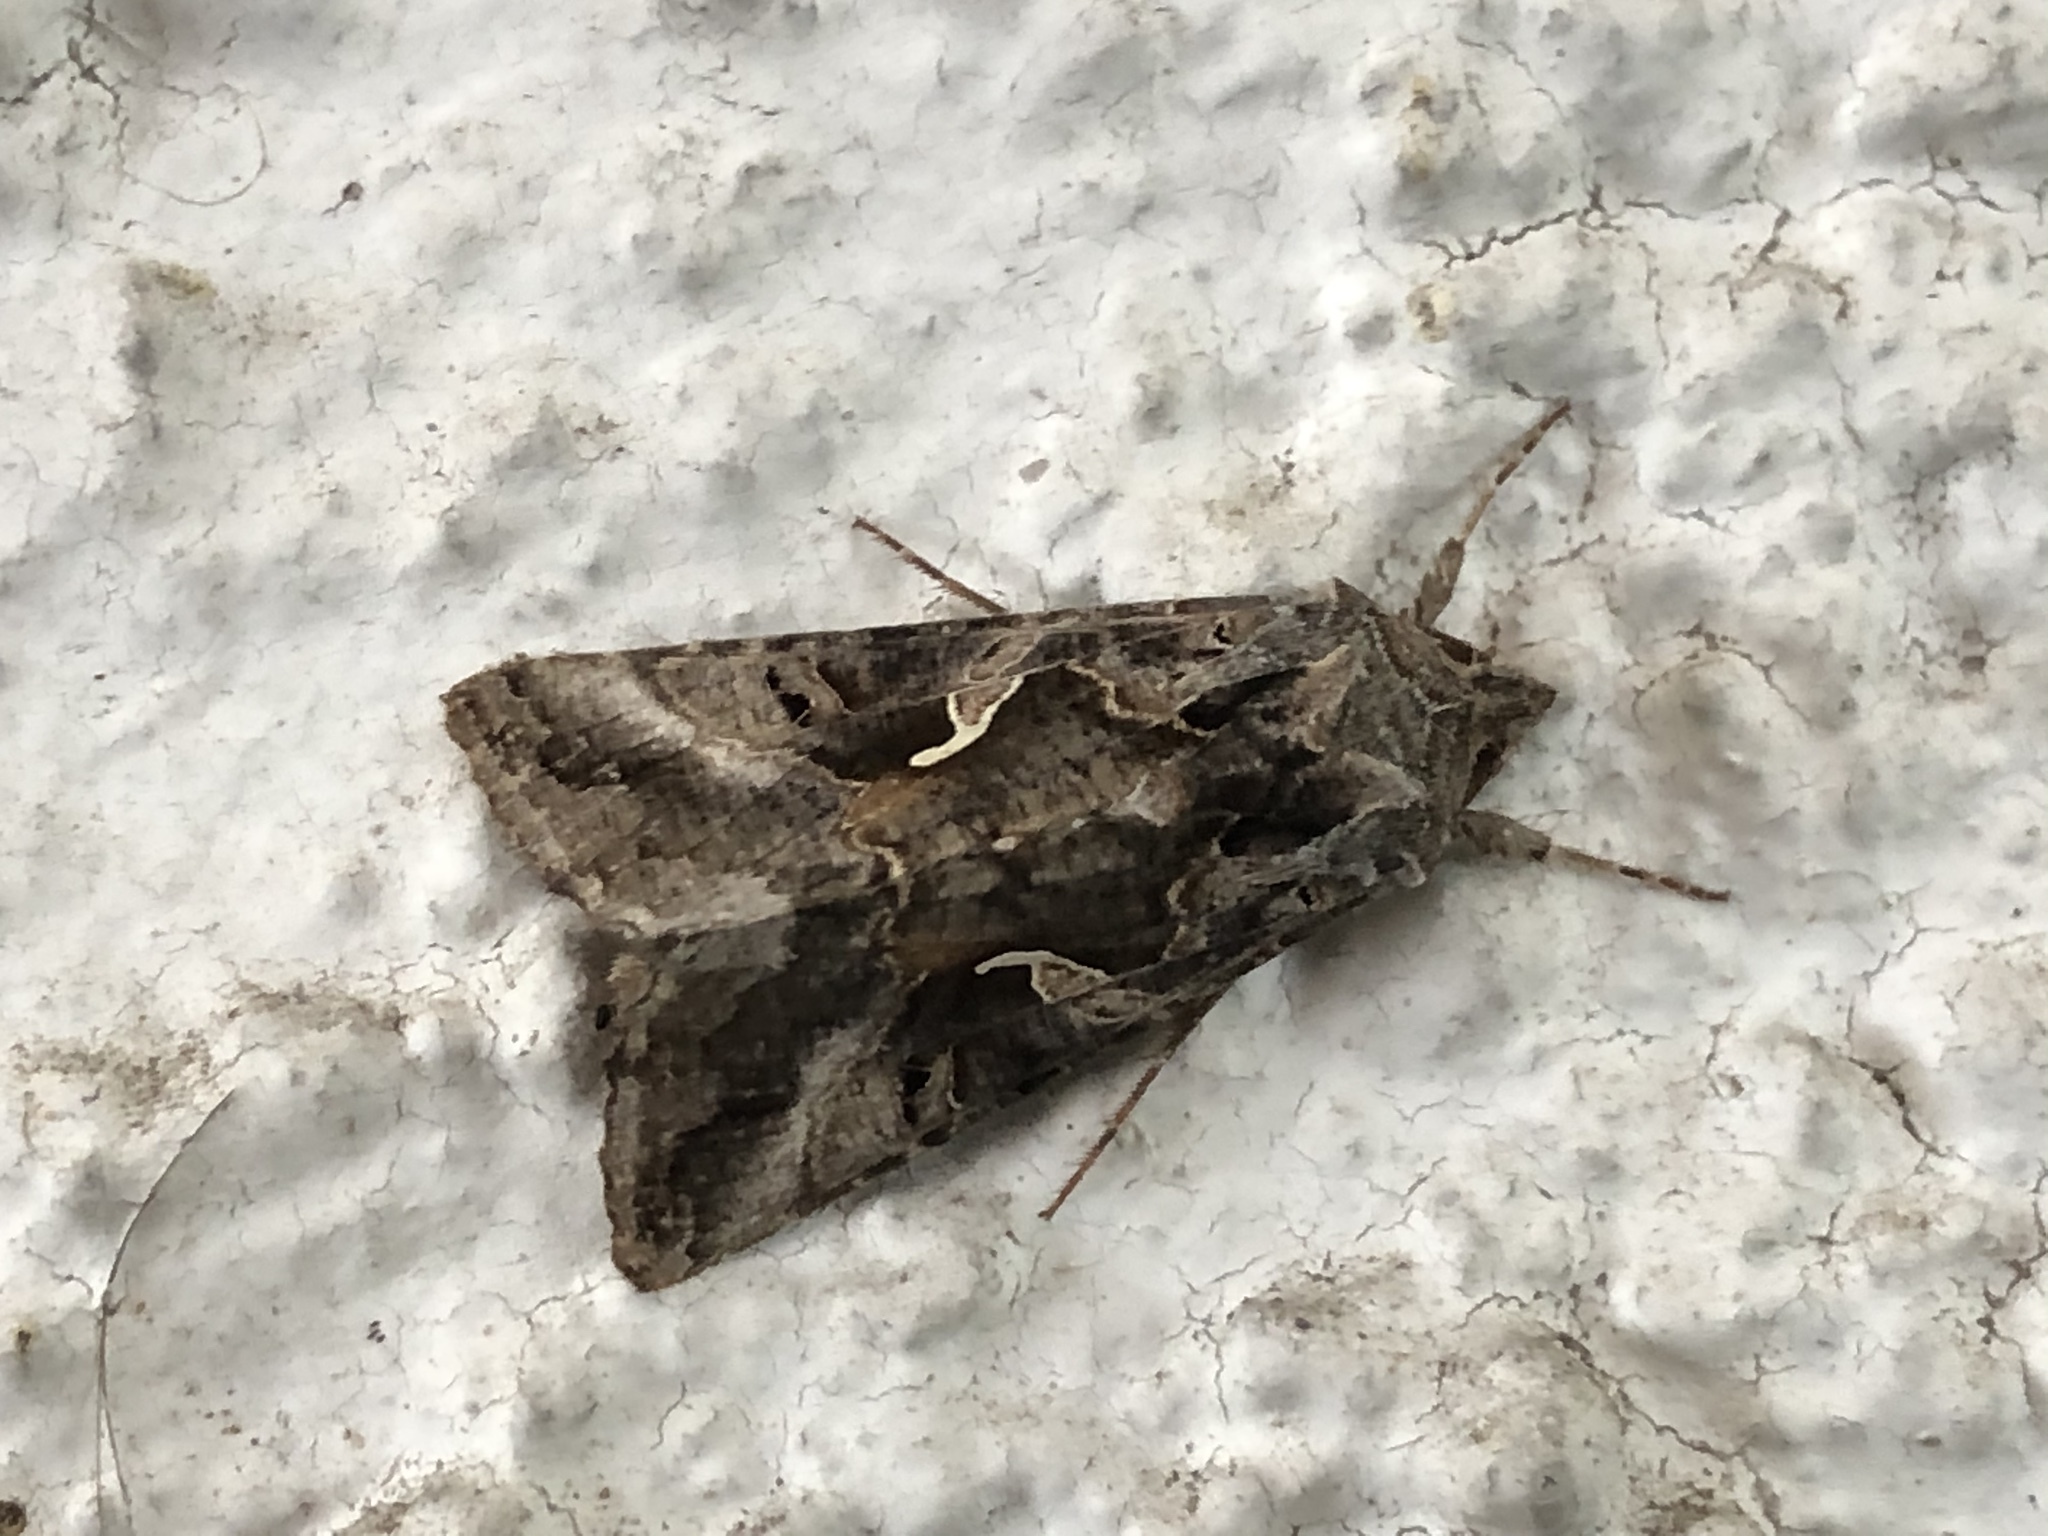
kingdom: Animalia
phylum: Arthropoda
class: Insecta
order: Lepidoptera
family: Noctuidae
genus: Autographa
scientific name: Autographa gamma
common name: Silver y
